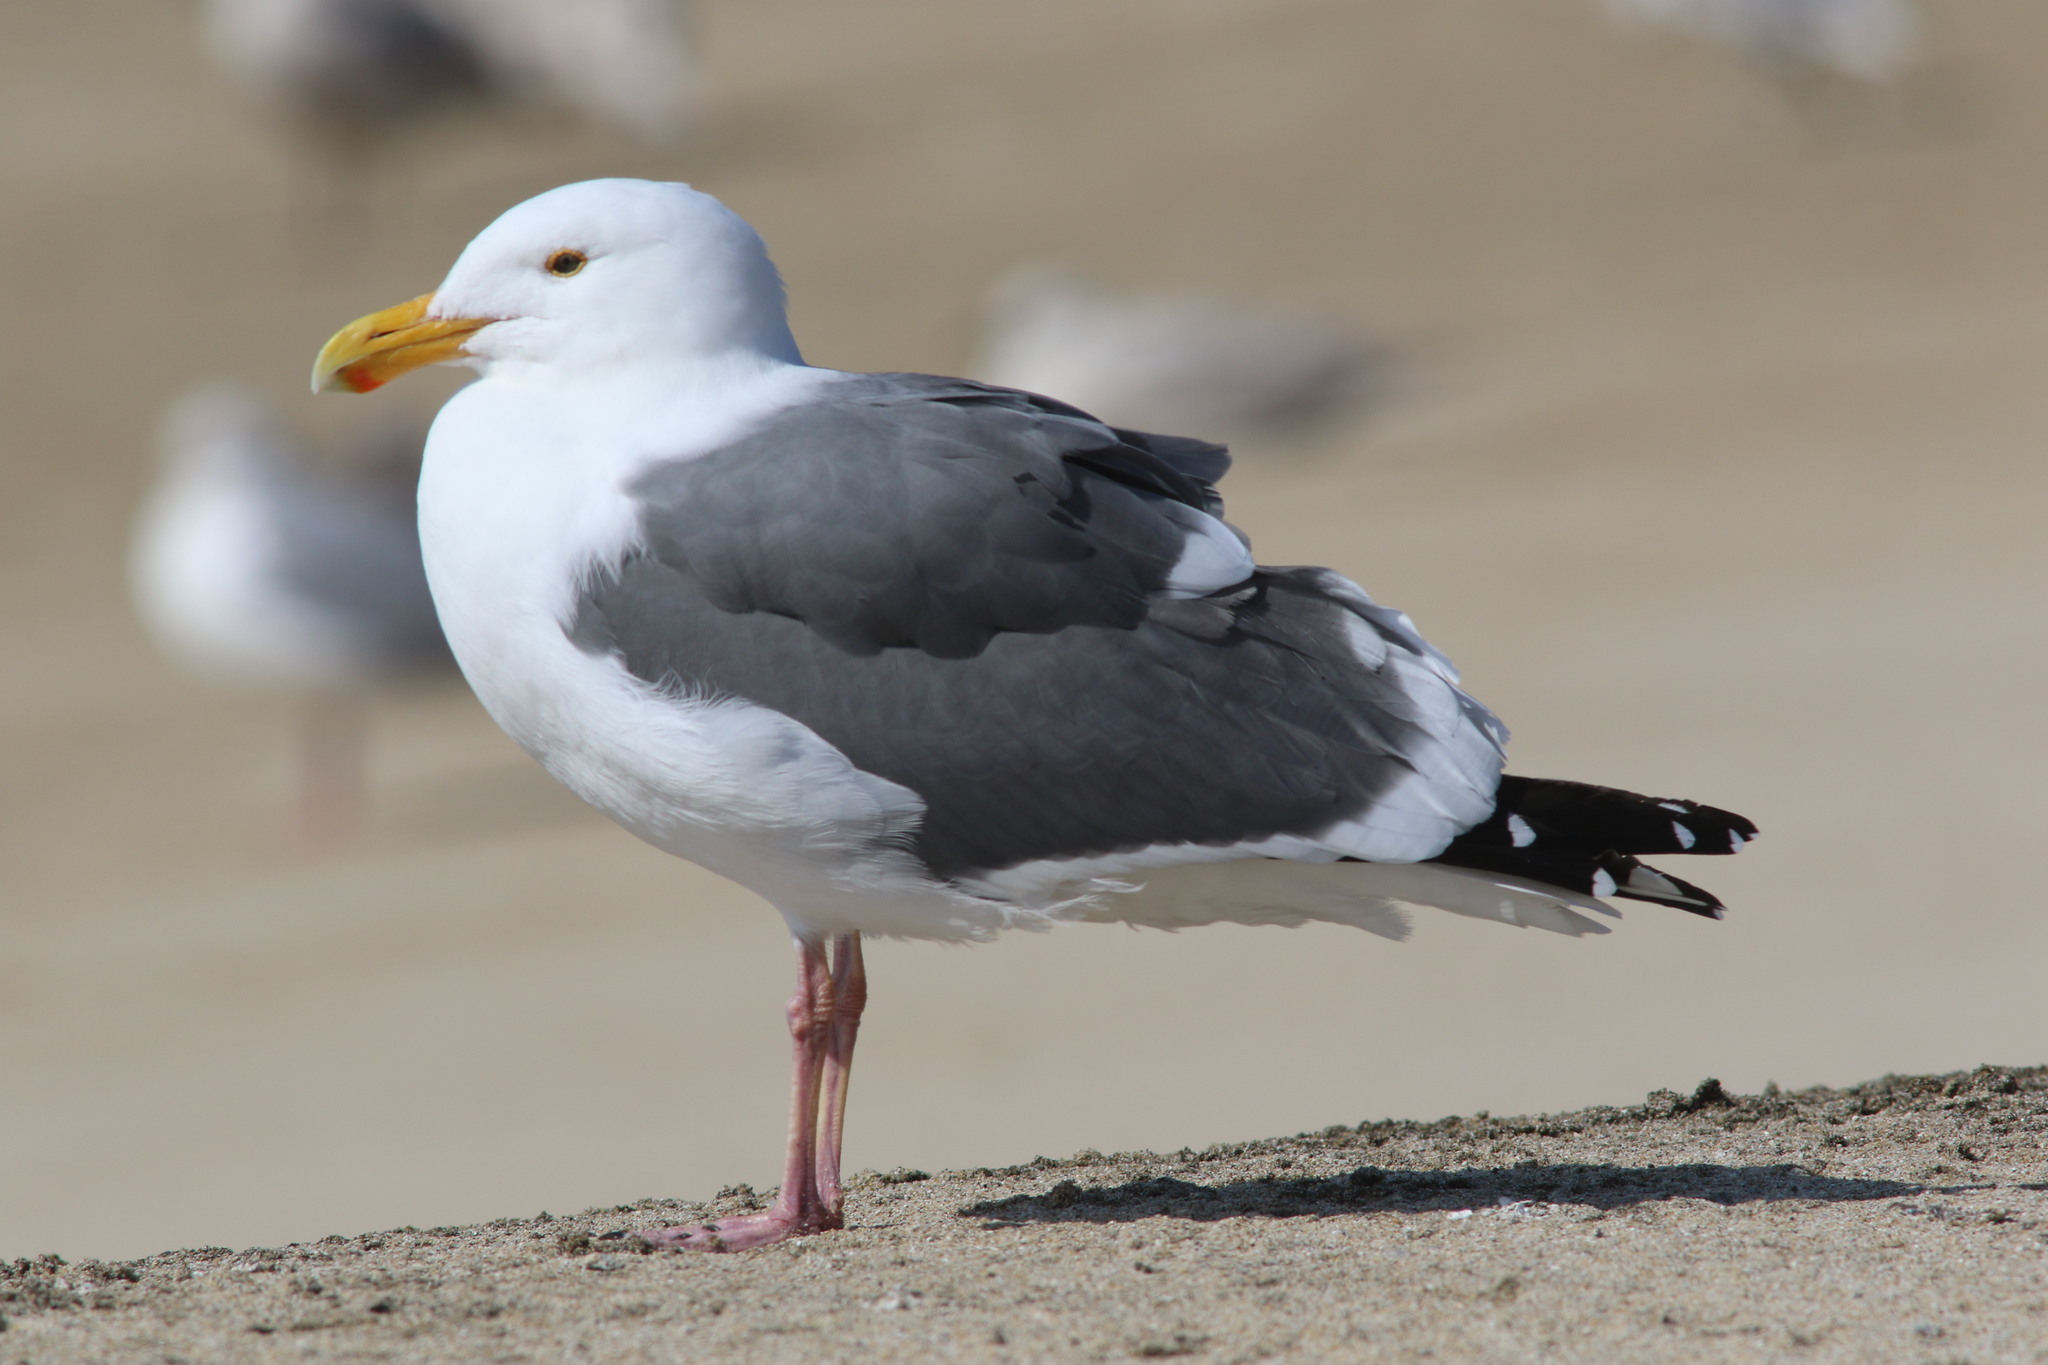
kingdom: Animalia
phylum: Chordata
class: Aves
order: Charadriiformes
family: Laridae
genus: Larus
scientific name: Larus occidentalis
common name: Western gull
